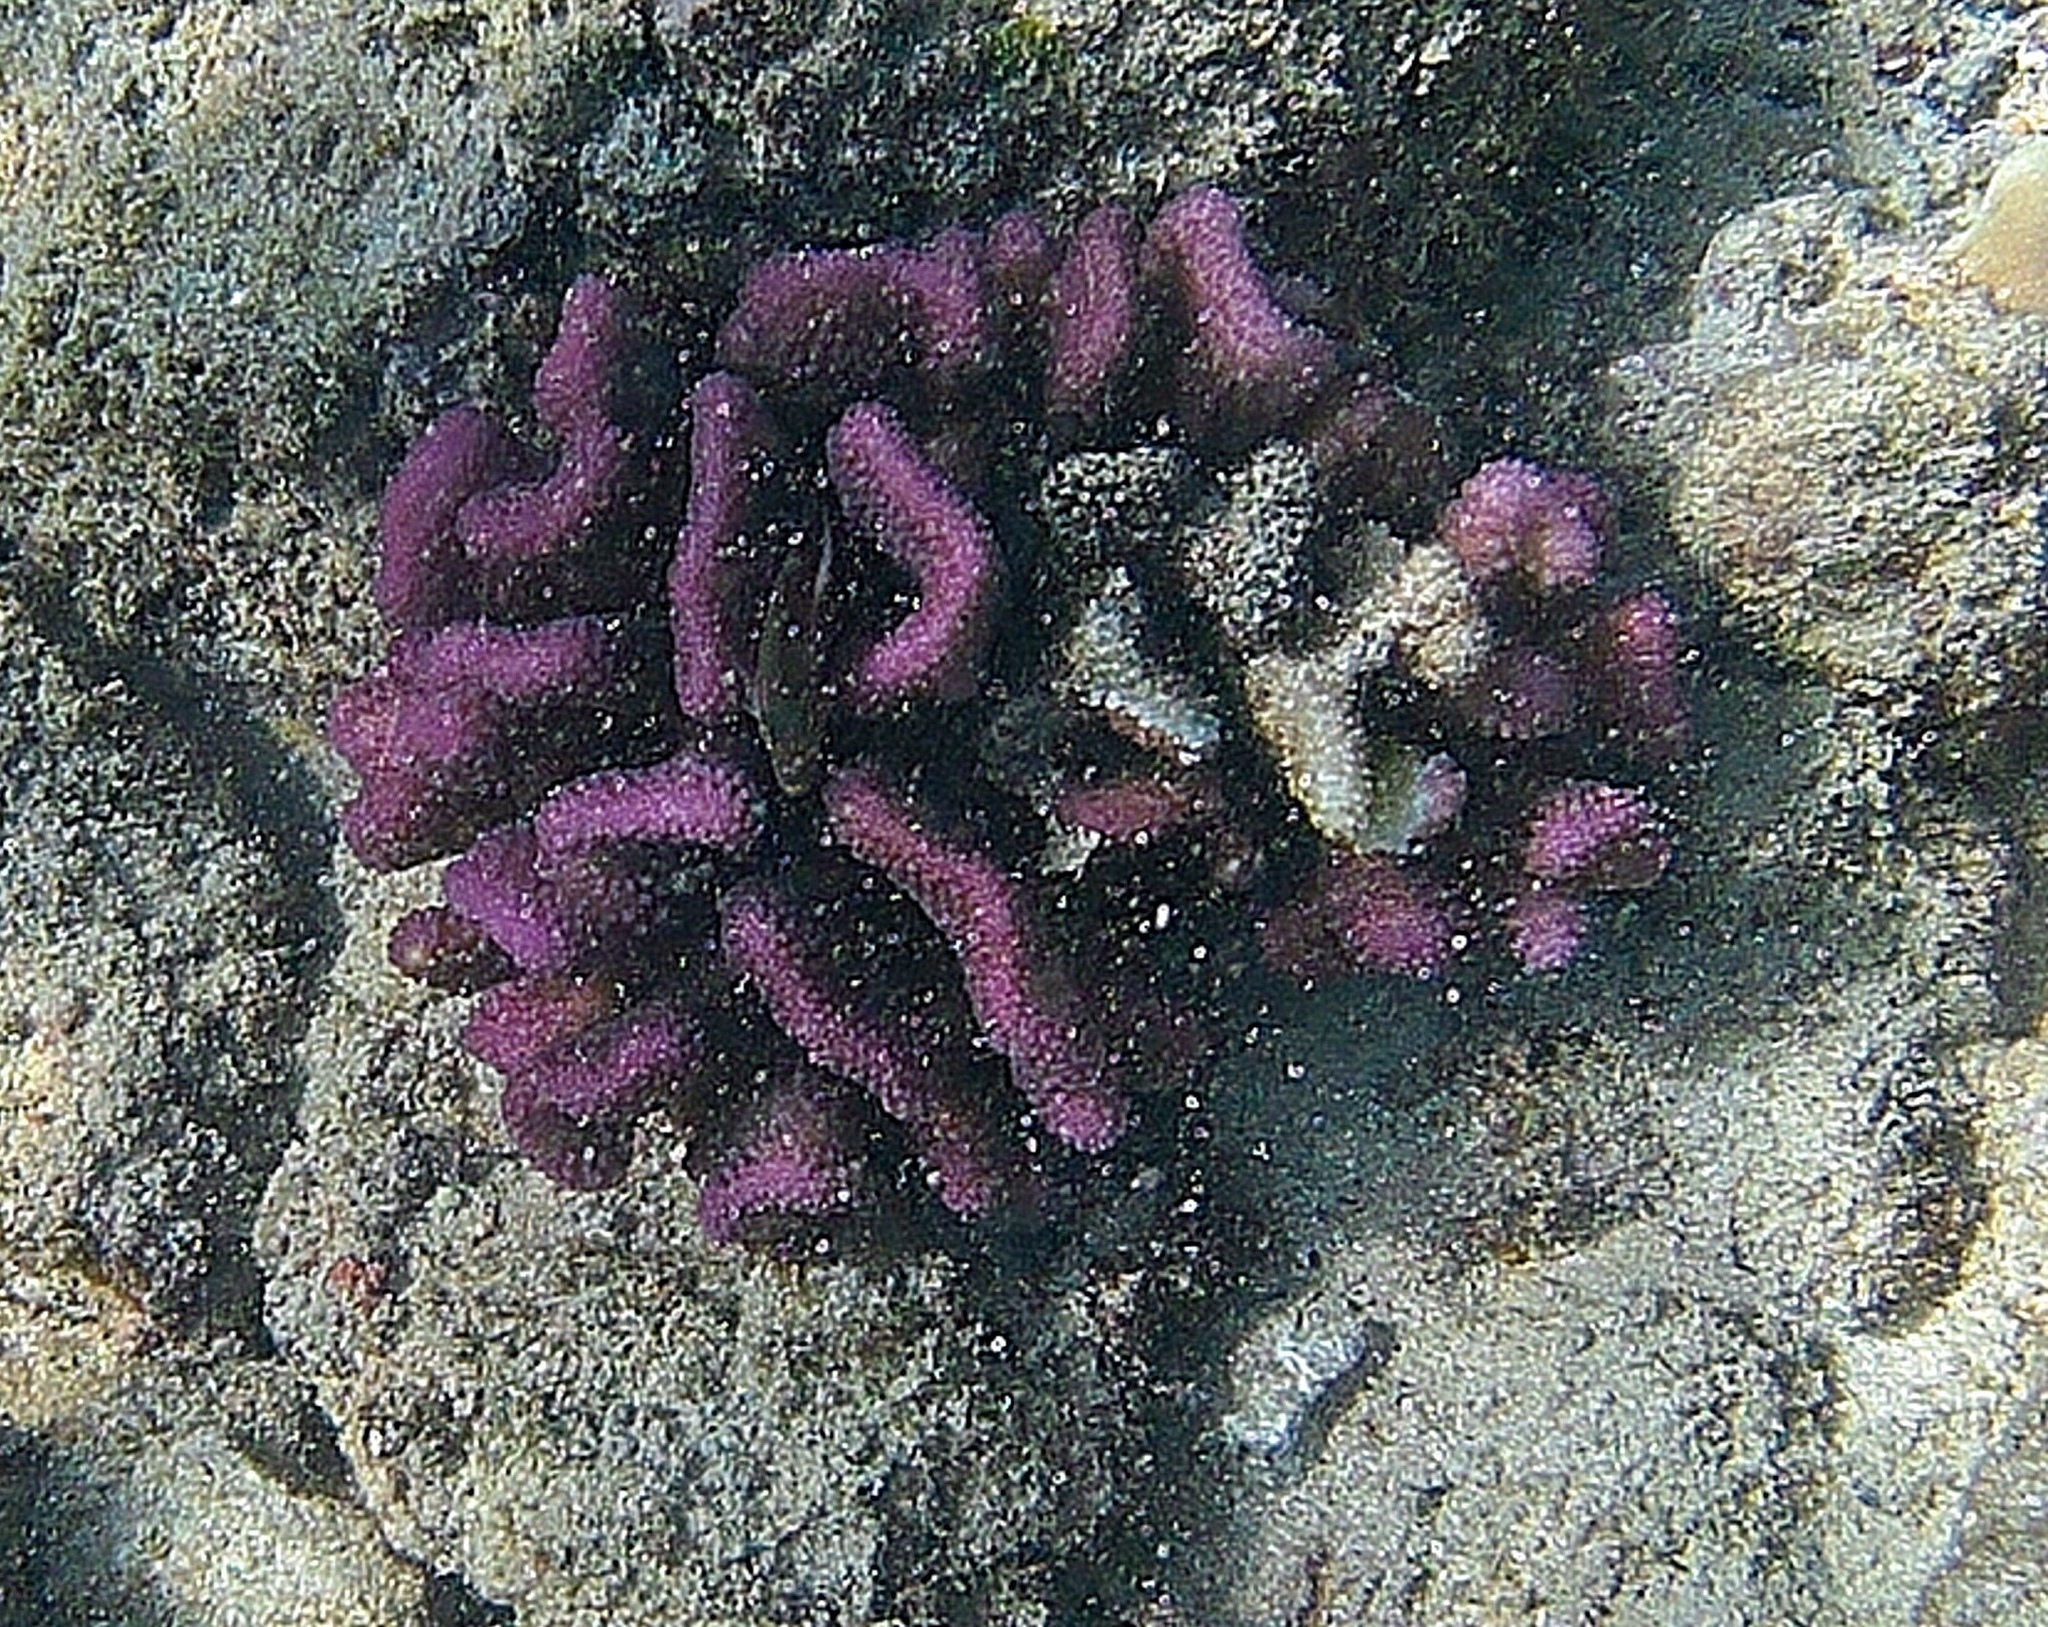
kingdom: Animalia
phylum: Cnidaria
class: Anthozoa
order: Scleractinia
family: Pocilloporidae
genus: Pocillopora
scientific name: Pocillopora meandrina
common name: Cauliflower coral
